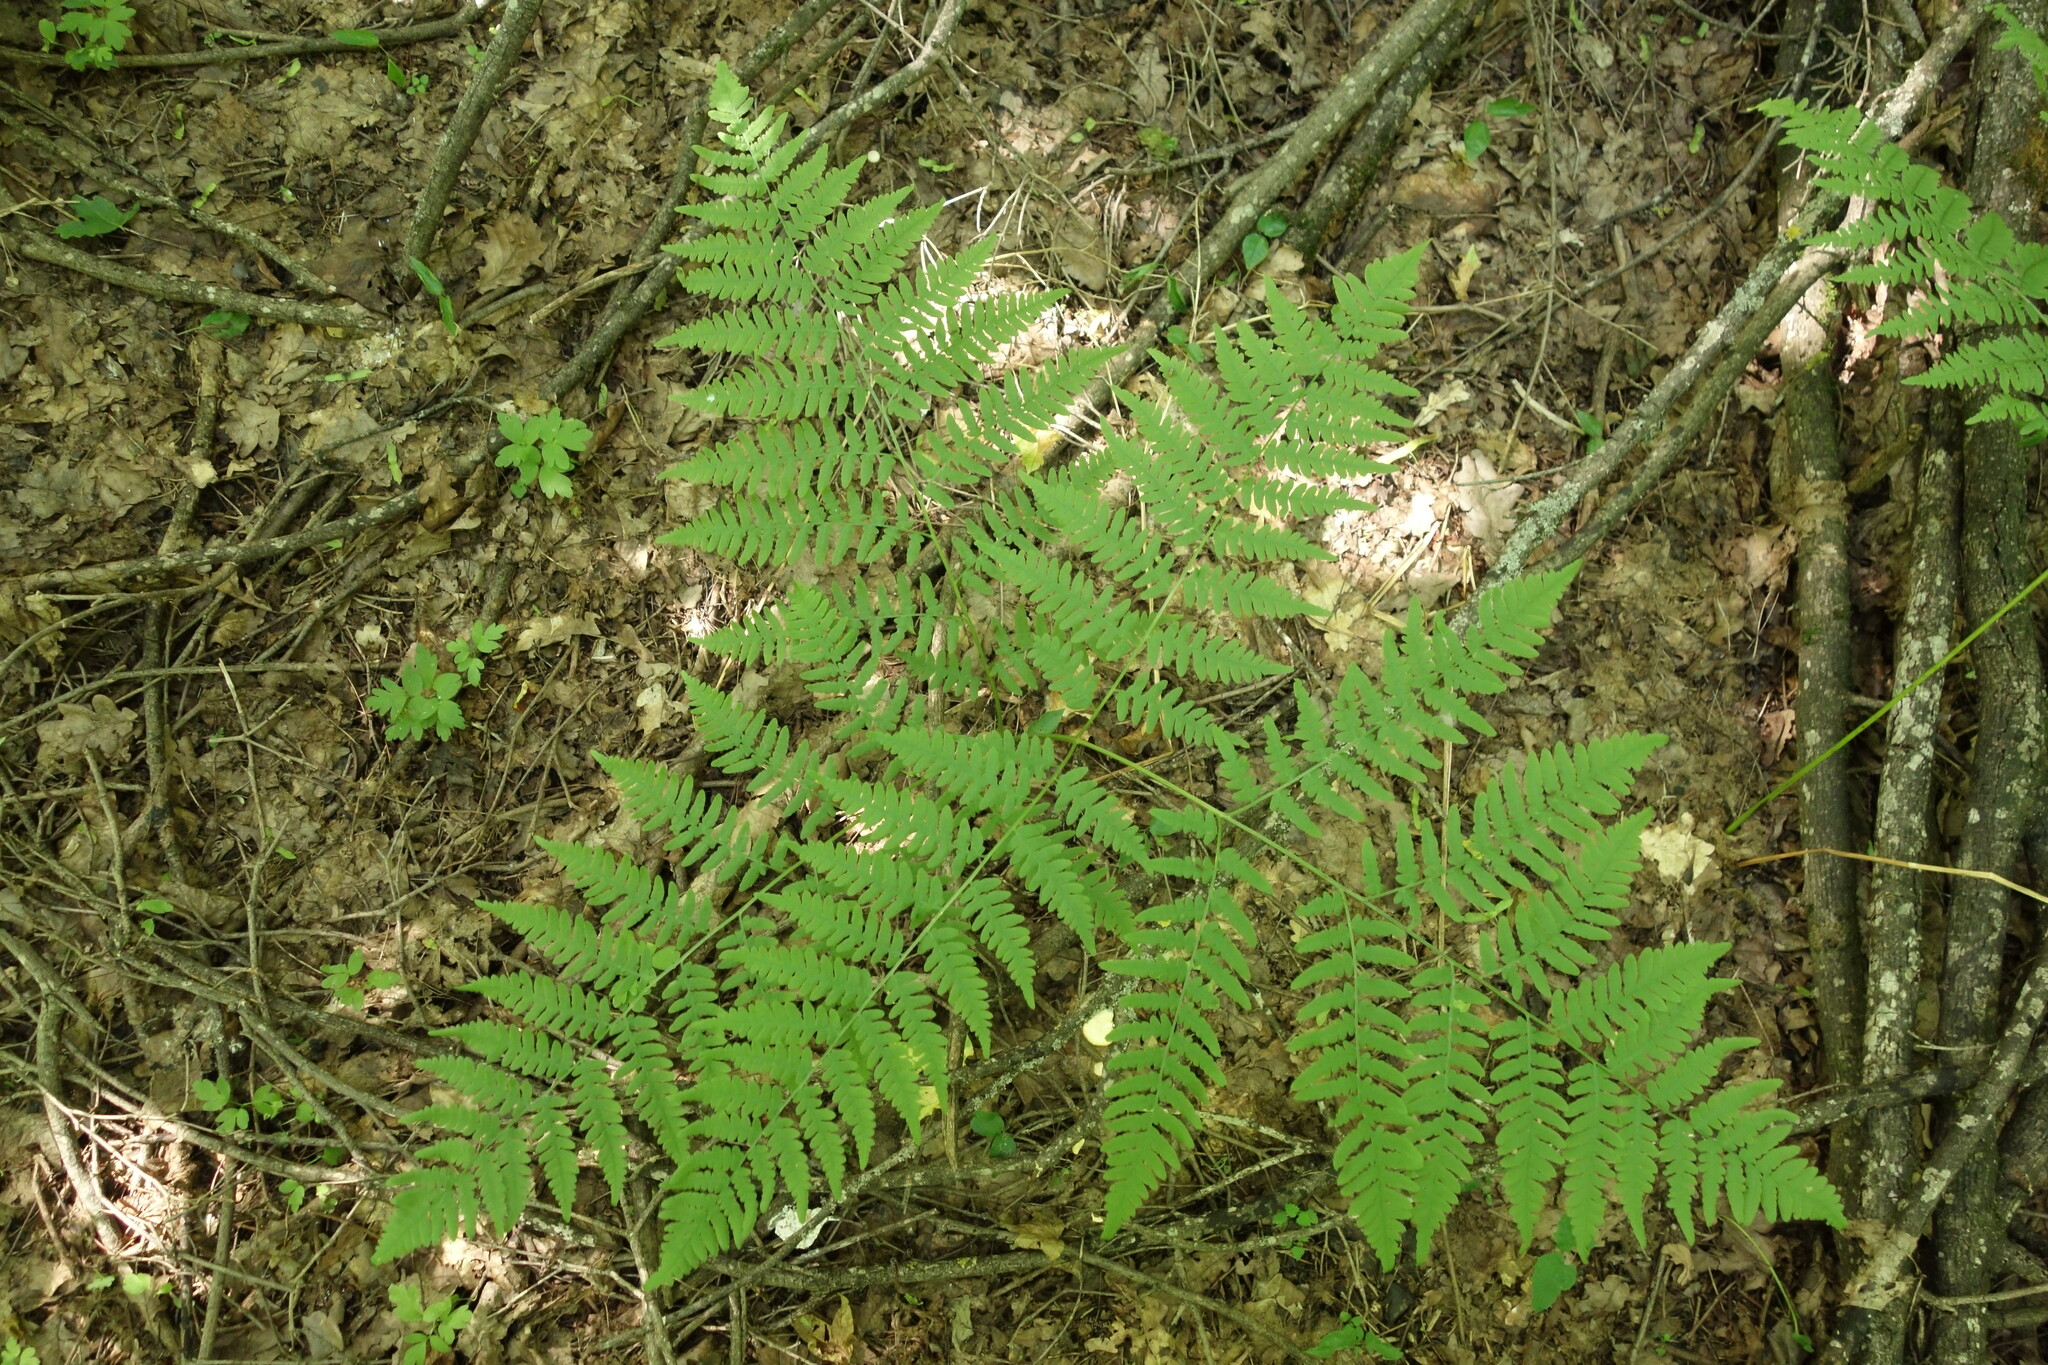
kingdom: Plantae
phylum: Tracheophyta
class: Polypodiopsida
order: Polypodiales
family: Dennstaedtiaceae
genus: Pteridium
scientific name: Pteridium aquilinum
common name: Bracken
